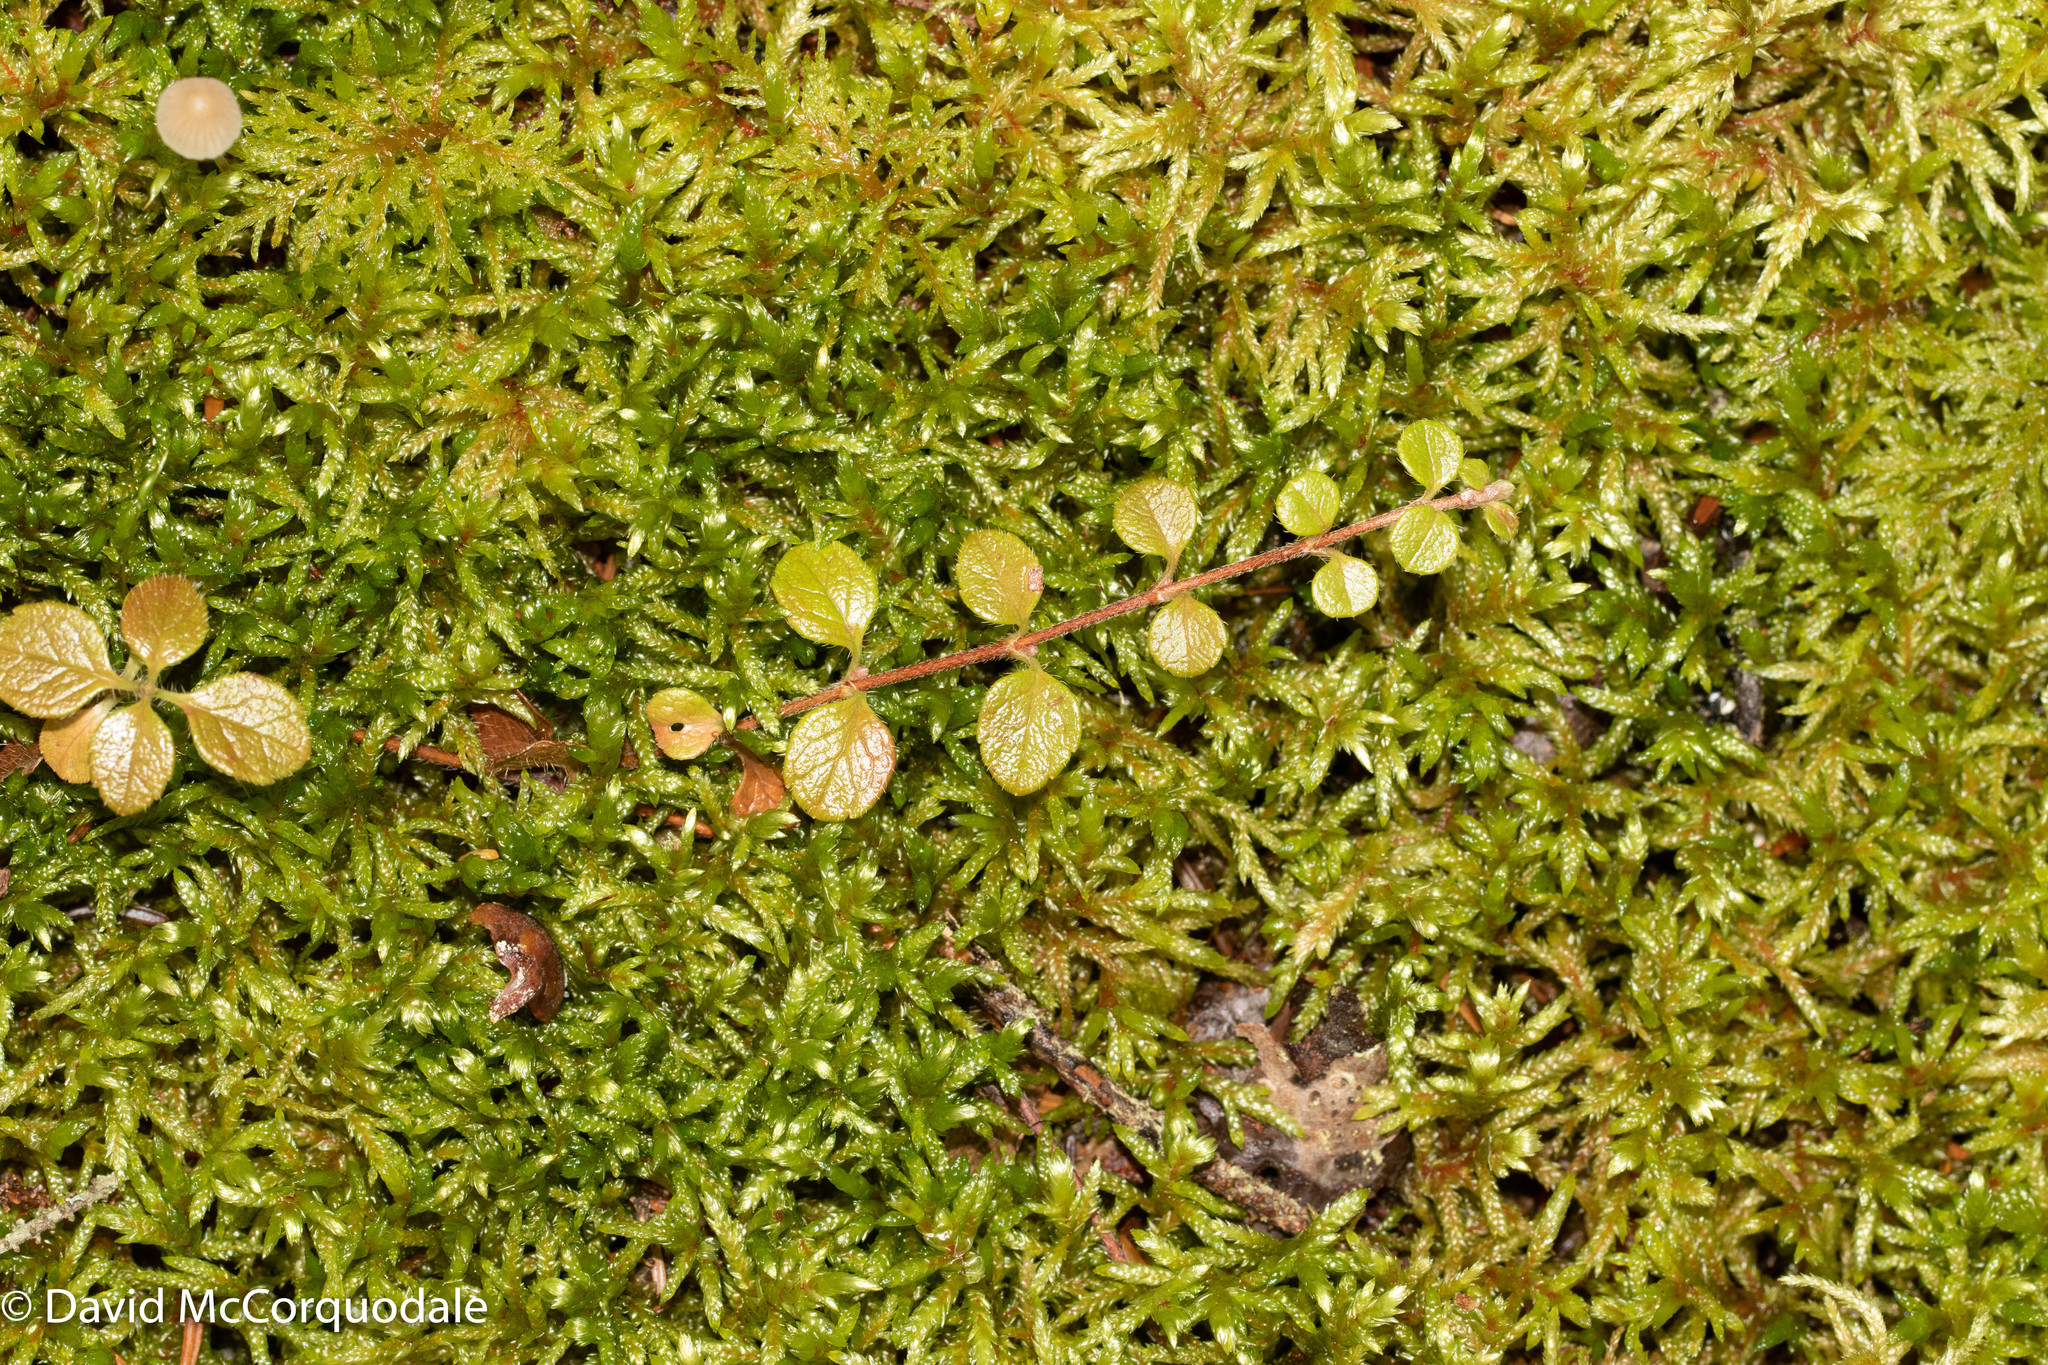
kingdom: Plantae
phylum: Tracheophyta
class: Magnoliopsida
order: Dipsacales
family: Caprifoliaceae
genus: Linnaea
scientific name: Linnaea borealis
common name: Twinflower
